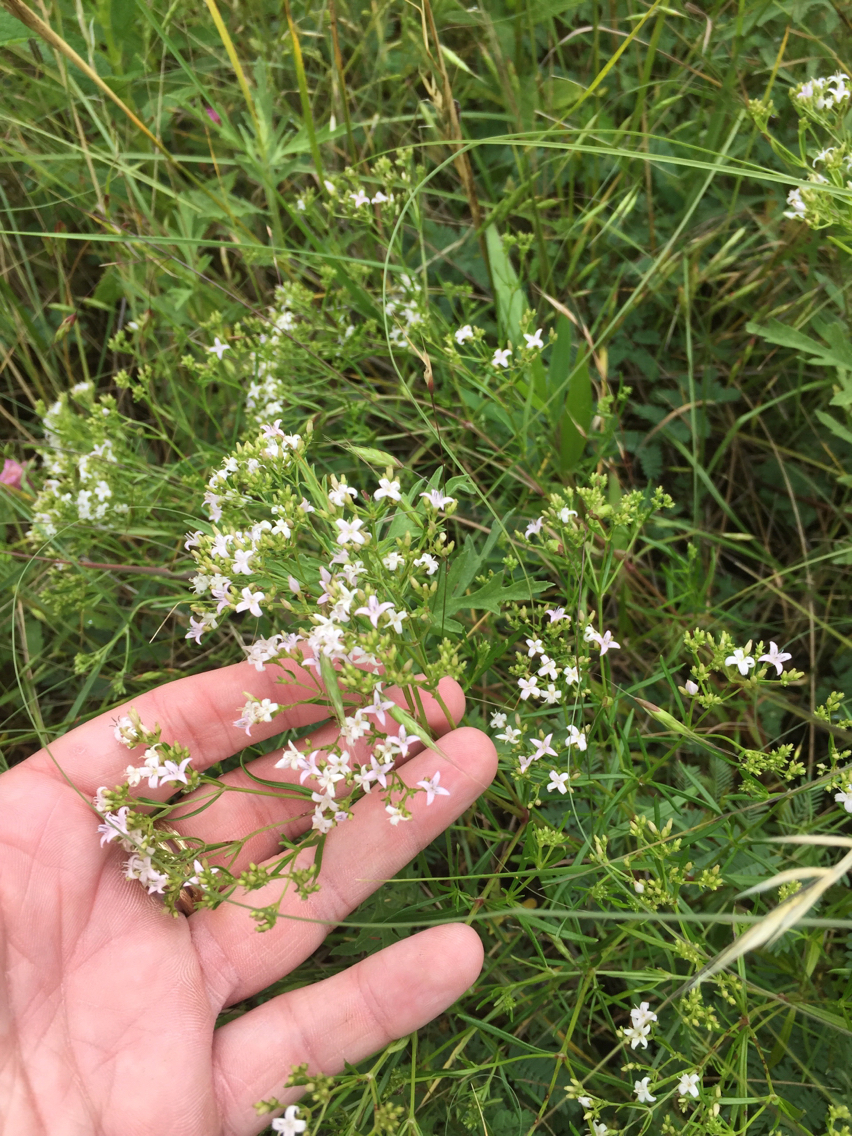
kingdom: Plantae
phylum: Tracheophyta
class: Magnoliopsida
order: Gentianales
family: Rubiaceae
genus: Stenaria
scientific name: Stenaria nigricans
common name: Diamondflowers
